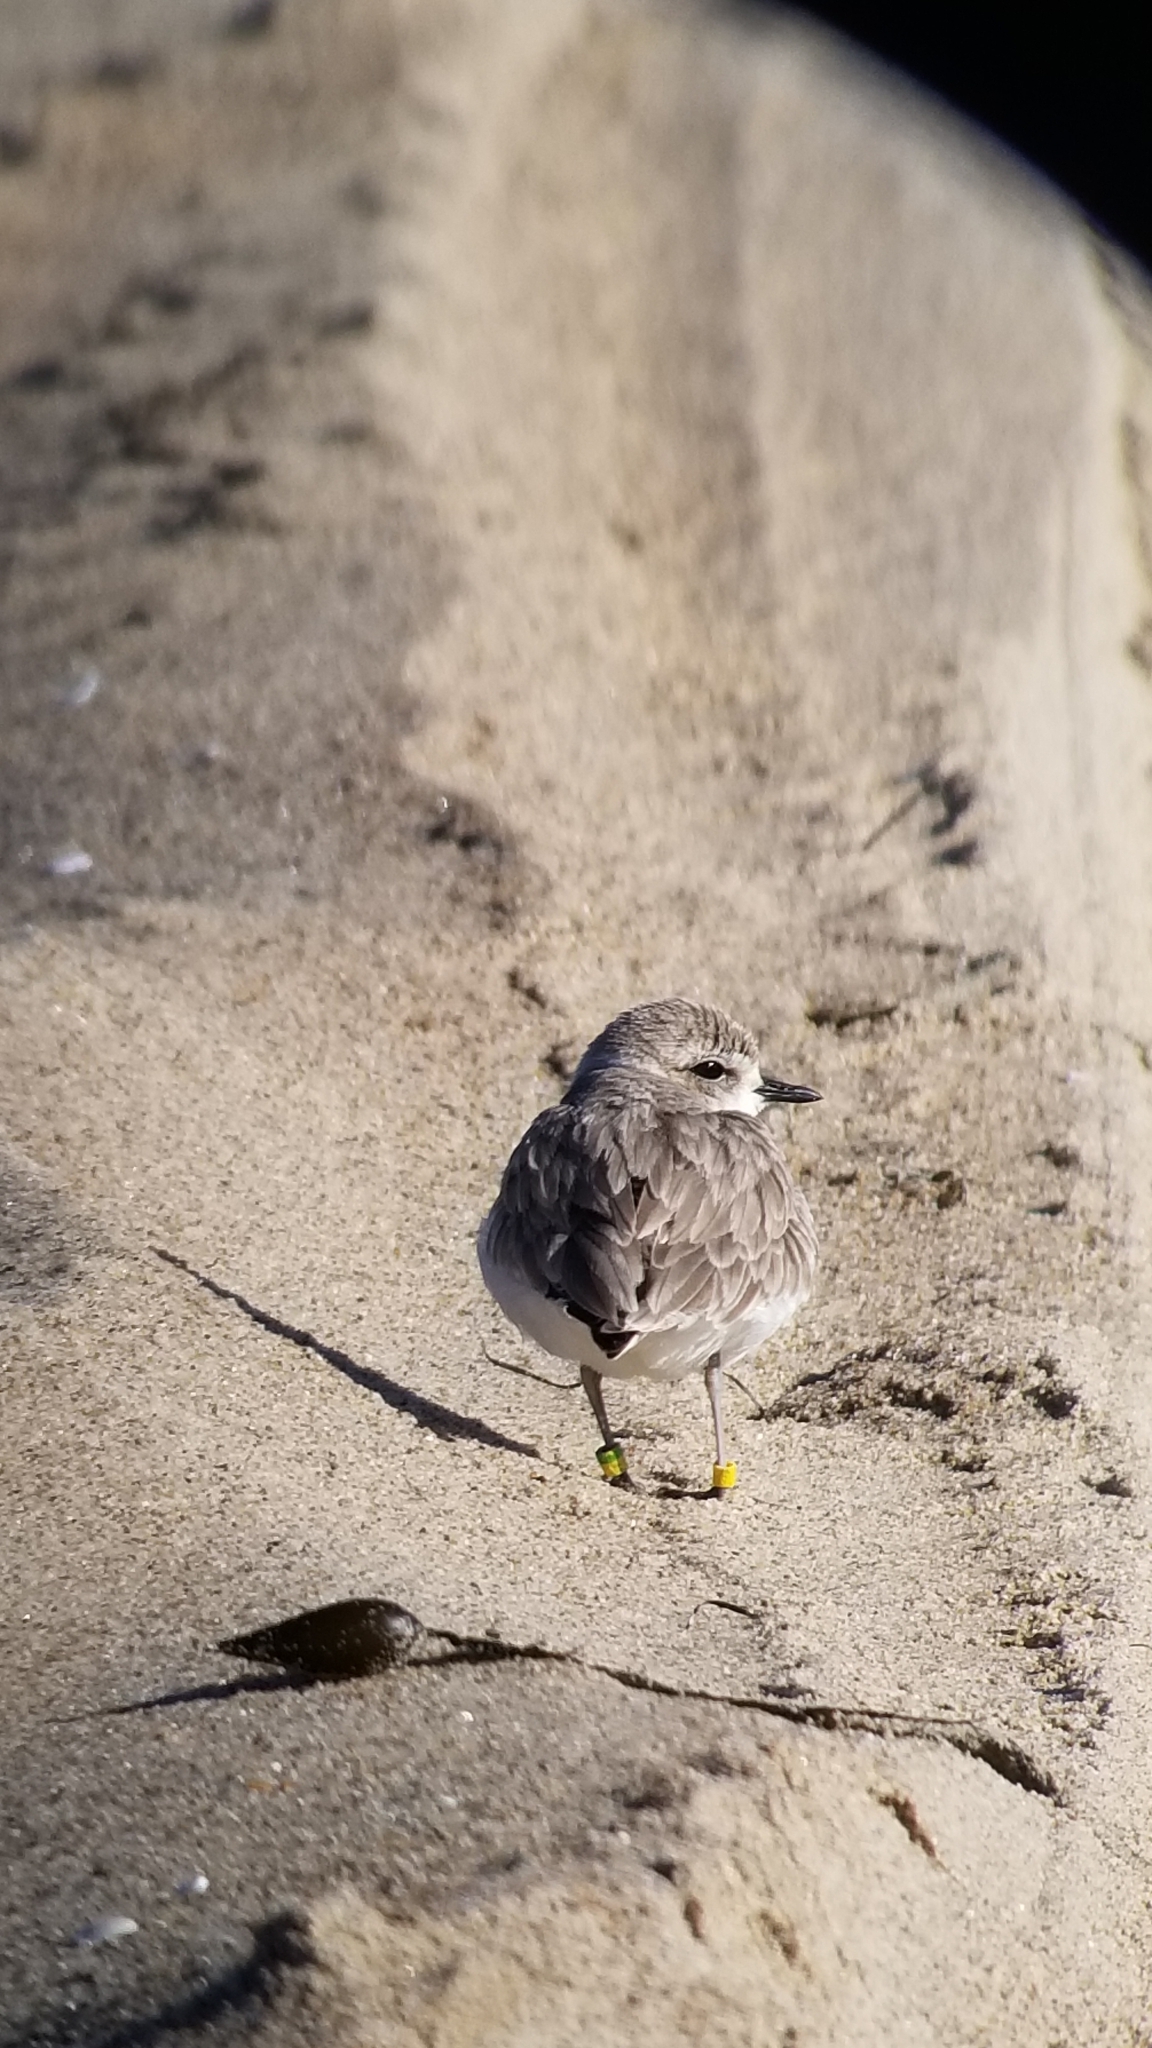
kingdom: Animalia
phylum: Chordata
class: Aves
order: Charadriiformes
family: Charadriidae
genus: Anarhynchus
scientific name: Anarhynchus
